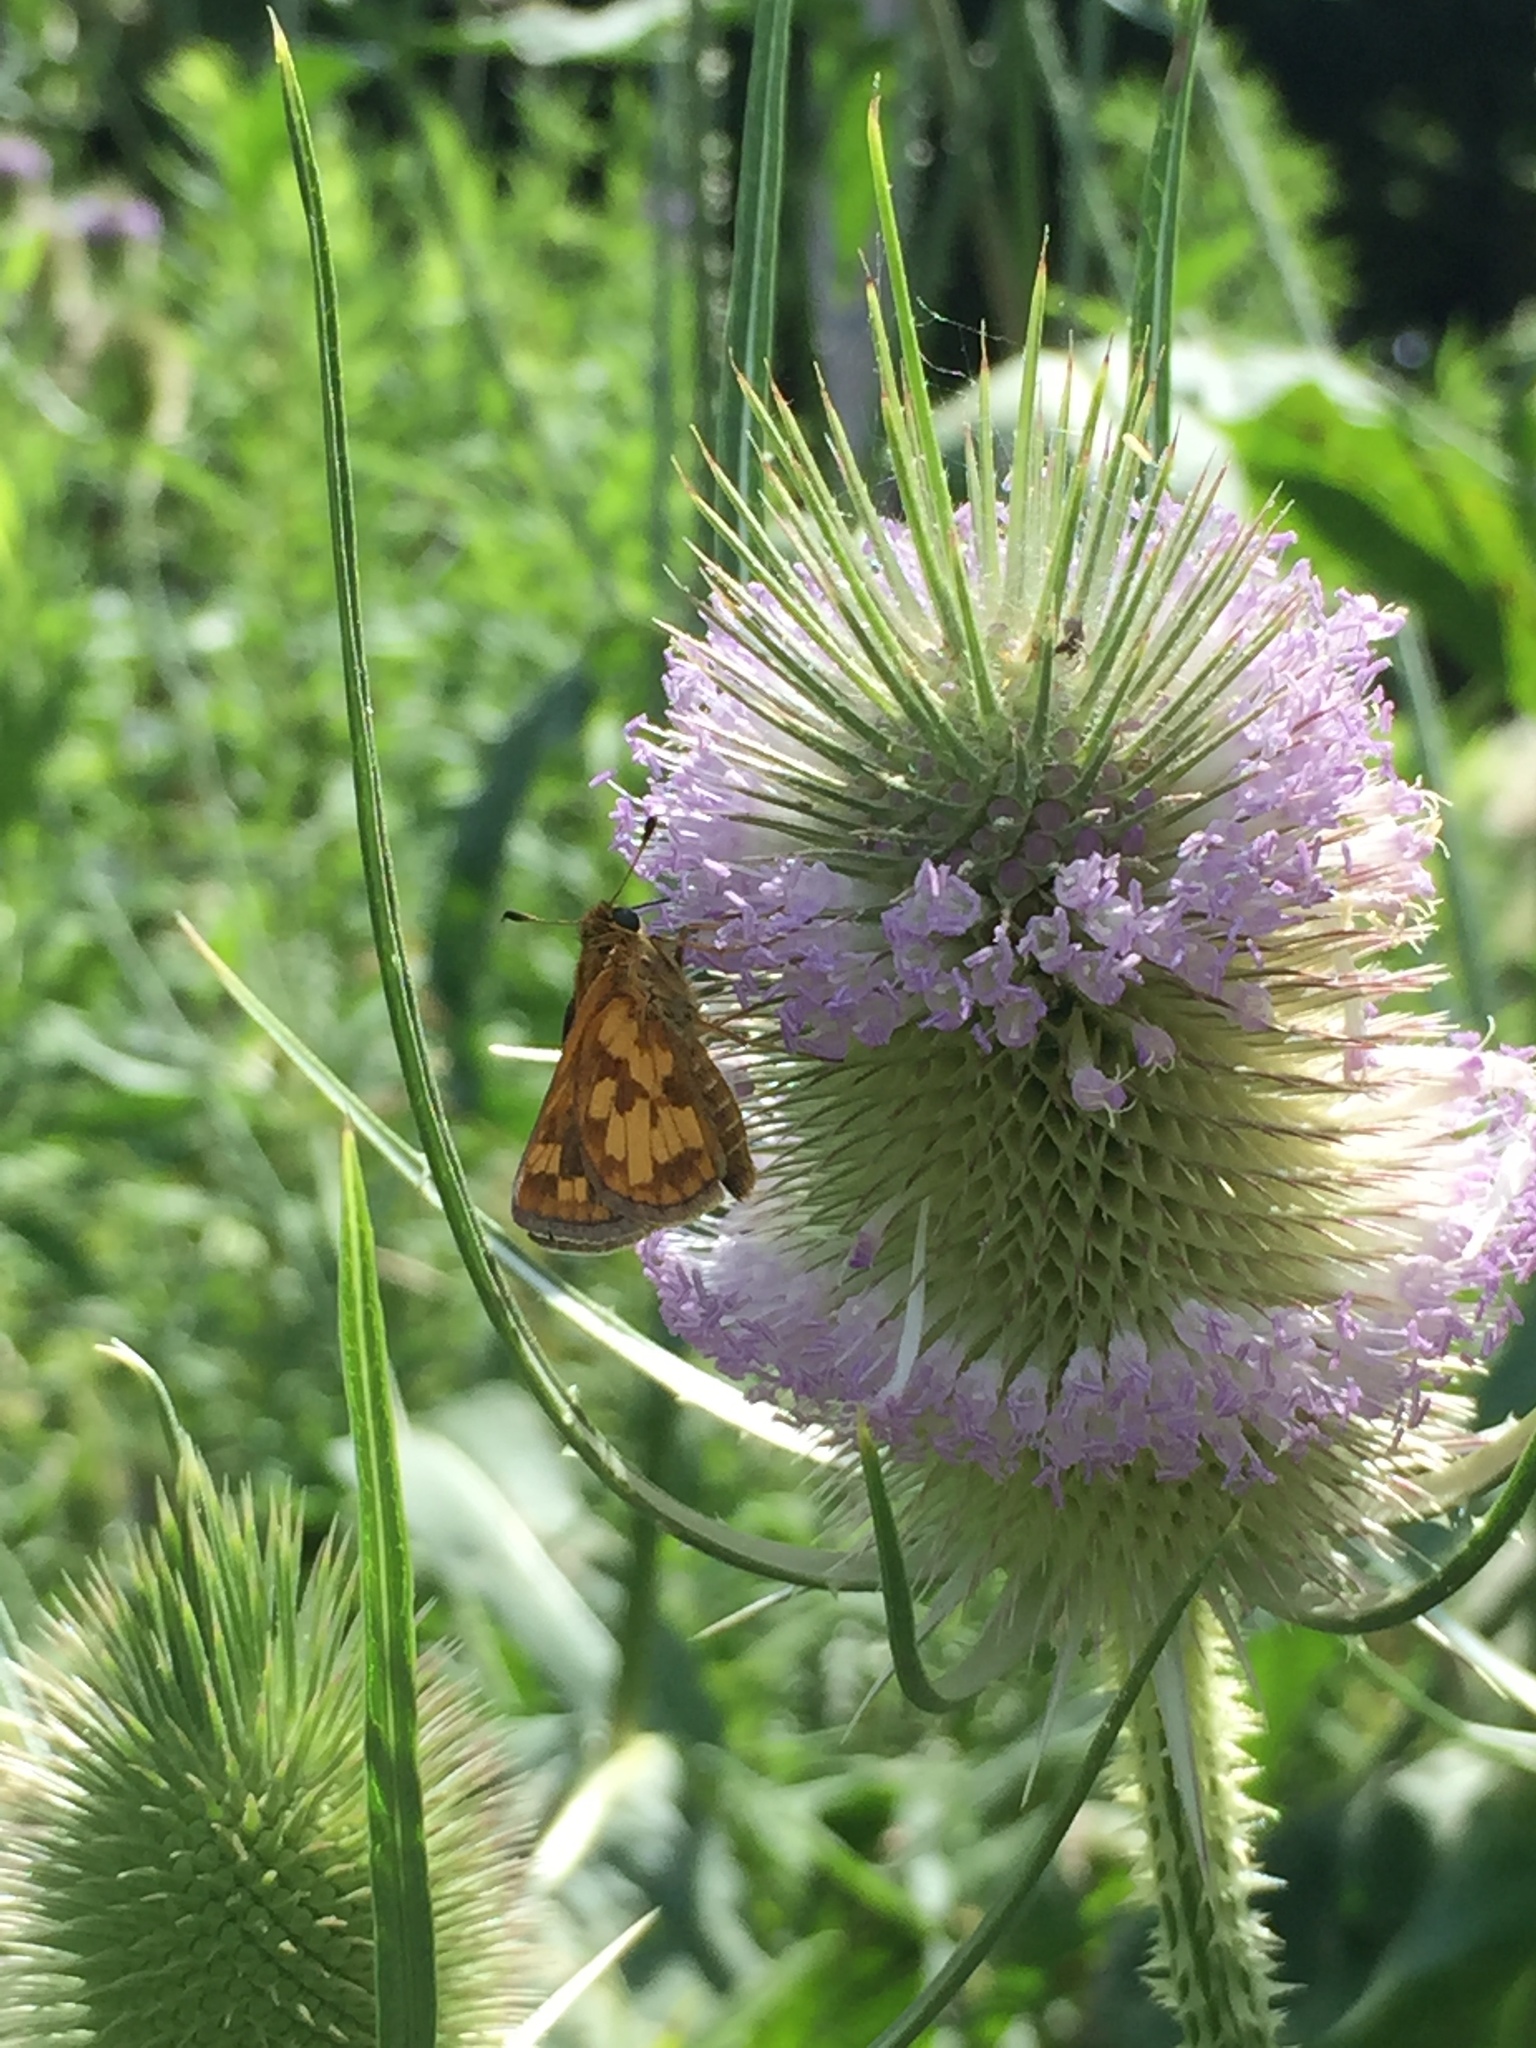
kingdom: Animalia
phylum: Arthropoda
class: Insecta
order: Lepidoptera
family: Hesperiidae
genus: Polites
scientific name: Polites coras
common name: Peck's skipper
